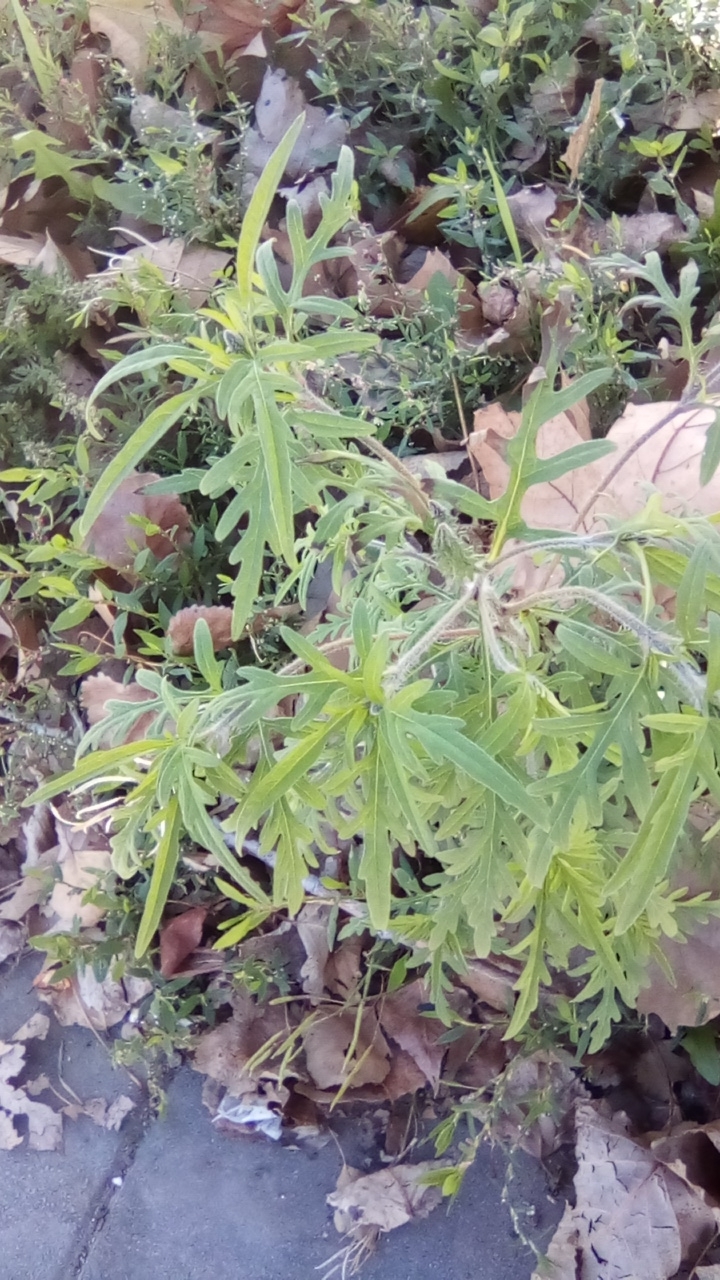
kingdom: Plantae
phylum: Tracheophyta
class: Magnoliopsida
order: Asterales
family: Asteraceae
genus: Ambrosia
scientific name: Ambrosia artemisiifolia
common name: Annual ragweed
